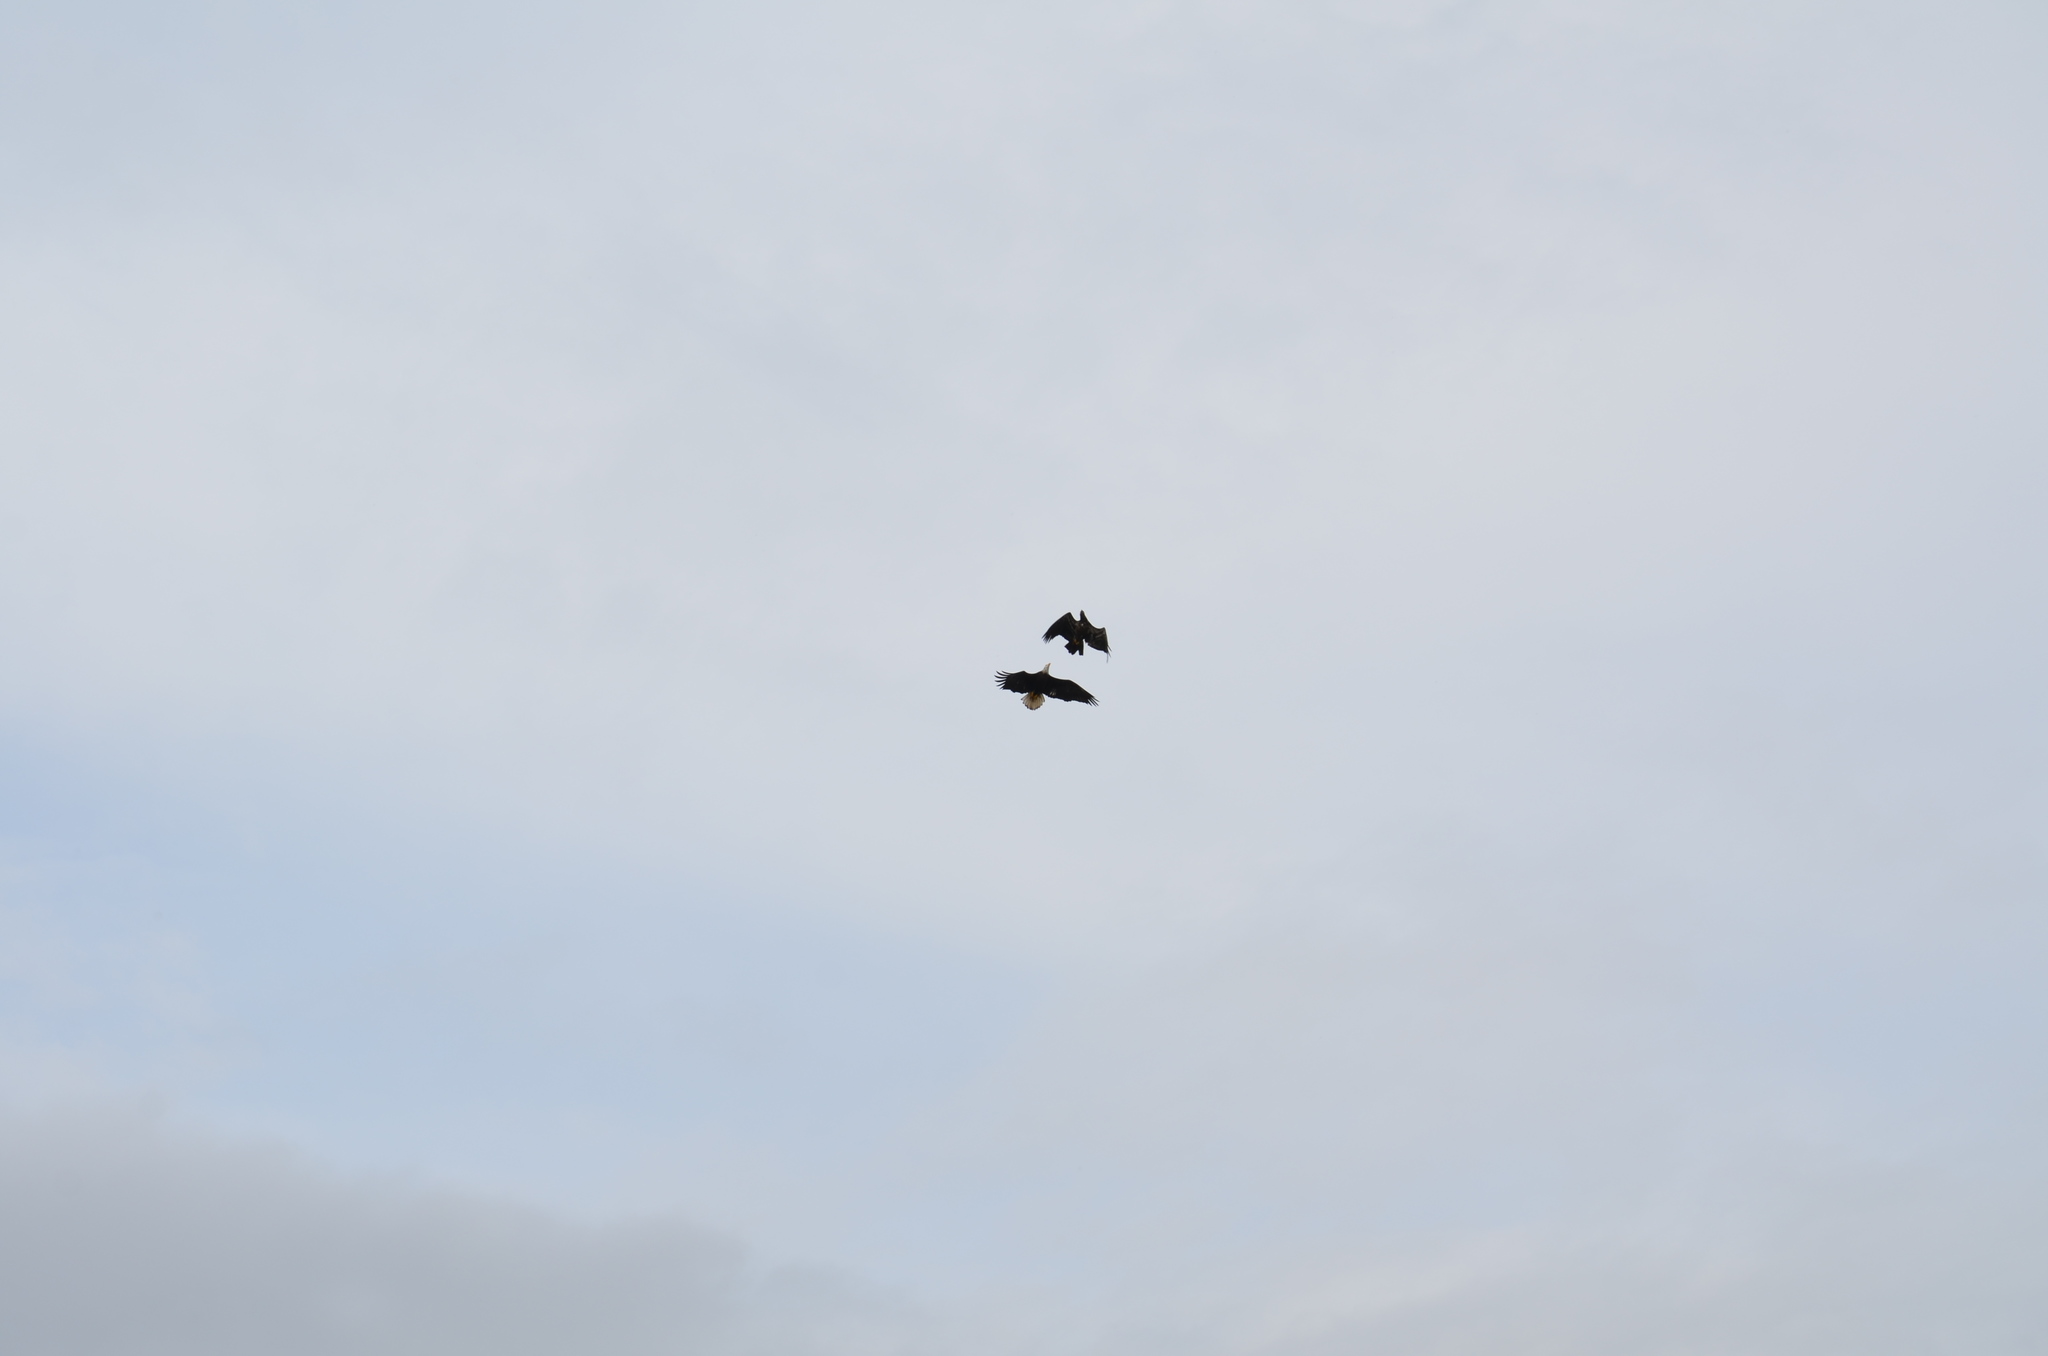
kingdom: Animalia
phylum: Chordata
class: Aves
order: Accipitriformes
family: Accipitridae
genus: Haliaeetus
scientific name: Haliaeetus leucocephalus
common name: Bald eagle
